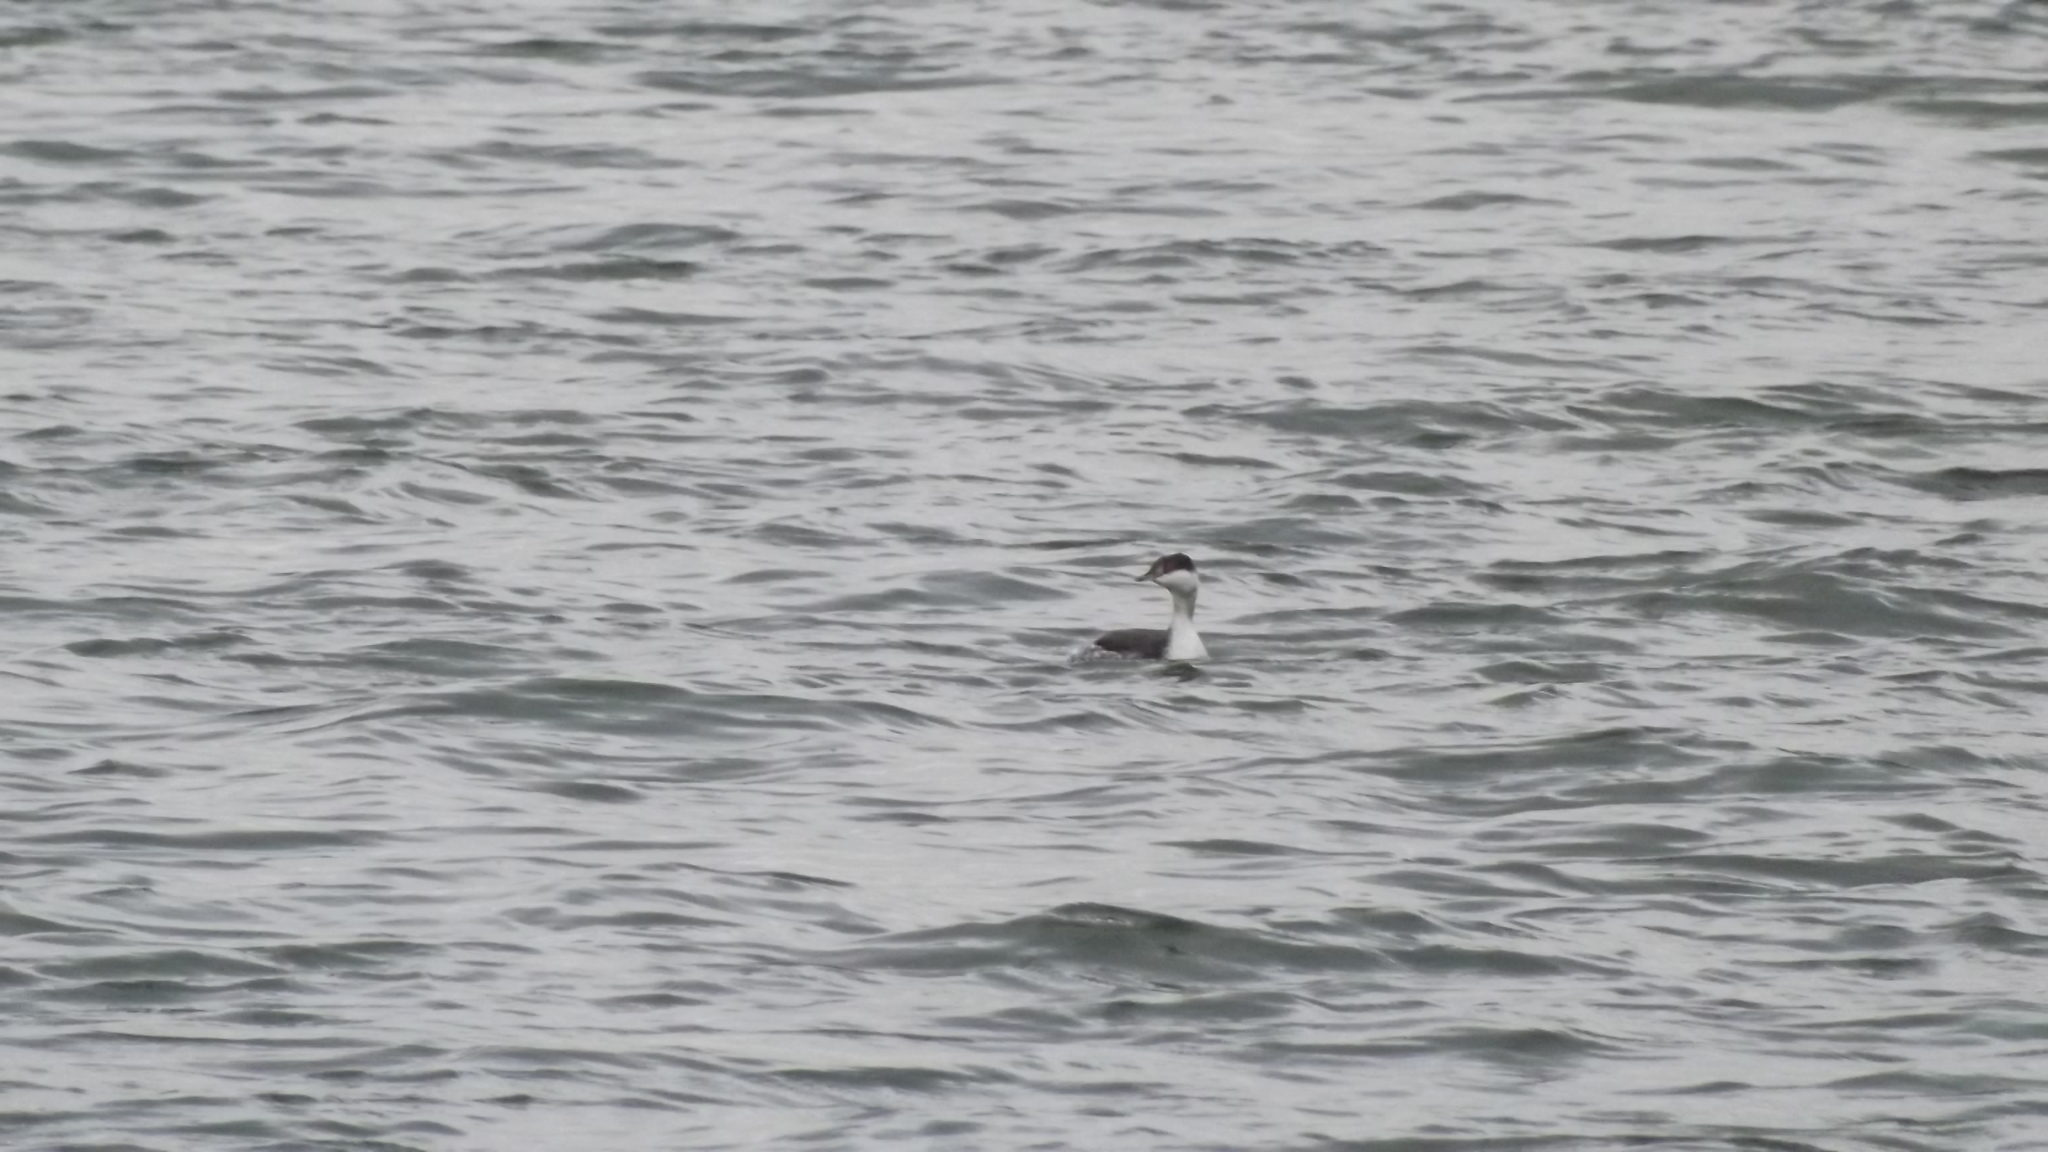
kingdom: Animalia
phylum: Chordata
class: Aves
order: Podicipediformes
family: Podicipedidae
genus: Podiceps
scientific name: Podiceps auritus
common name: Horned grebe
